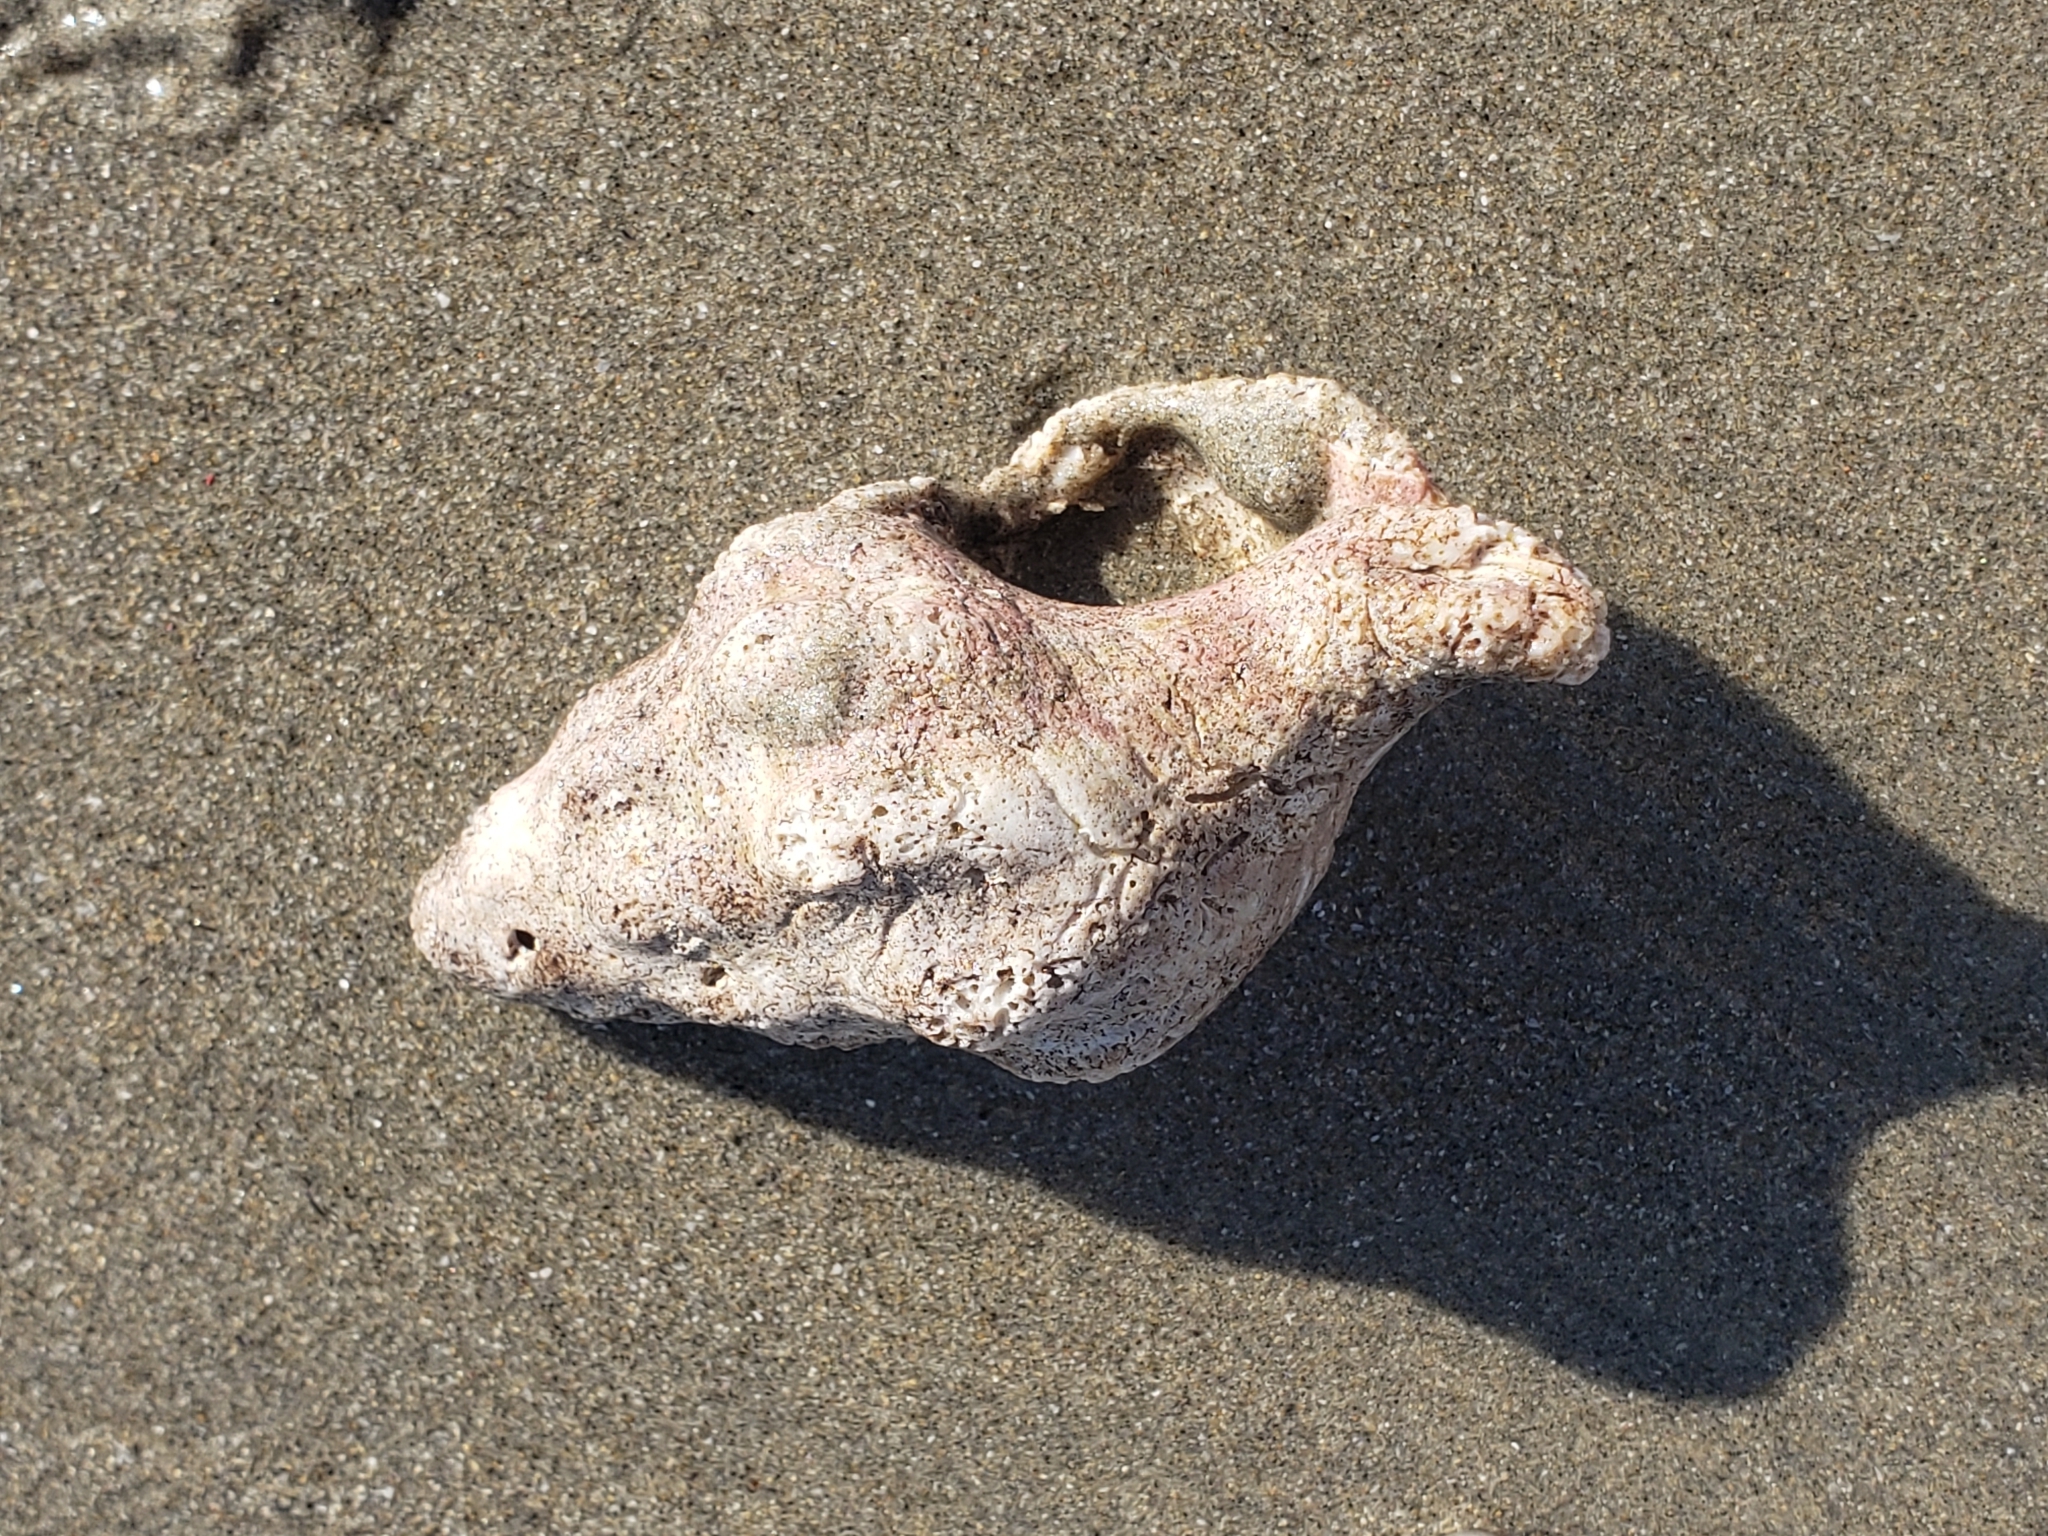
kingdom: Animalia
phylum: Mollusca
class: Gastropoda
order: Neogastropoda
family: Austrosiphonidae
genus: Kelletia
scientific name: Kelletia kelletii
